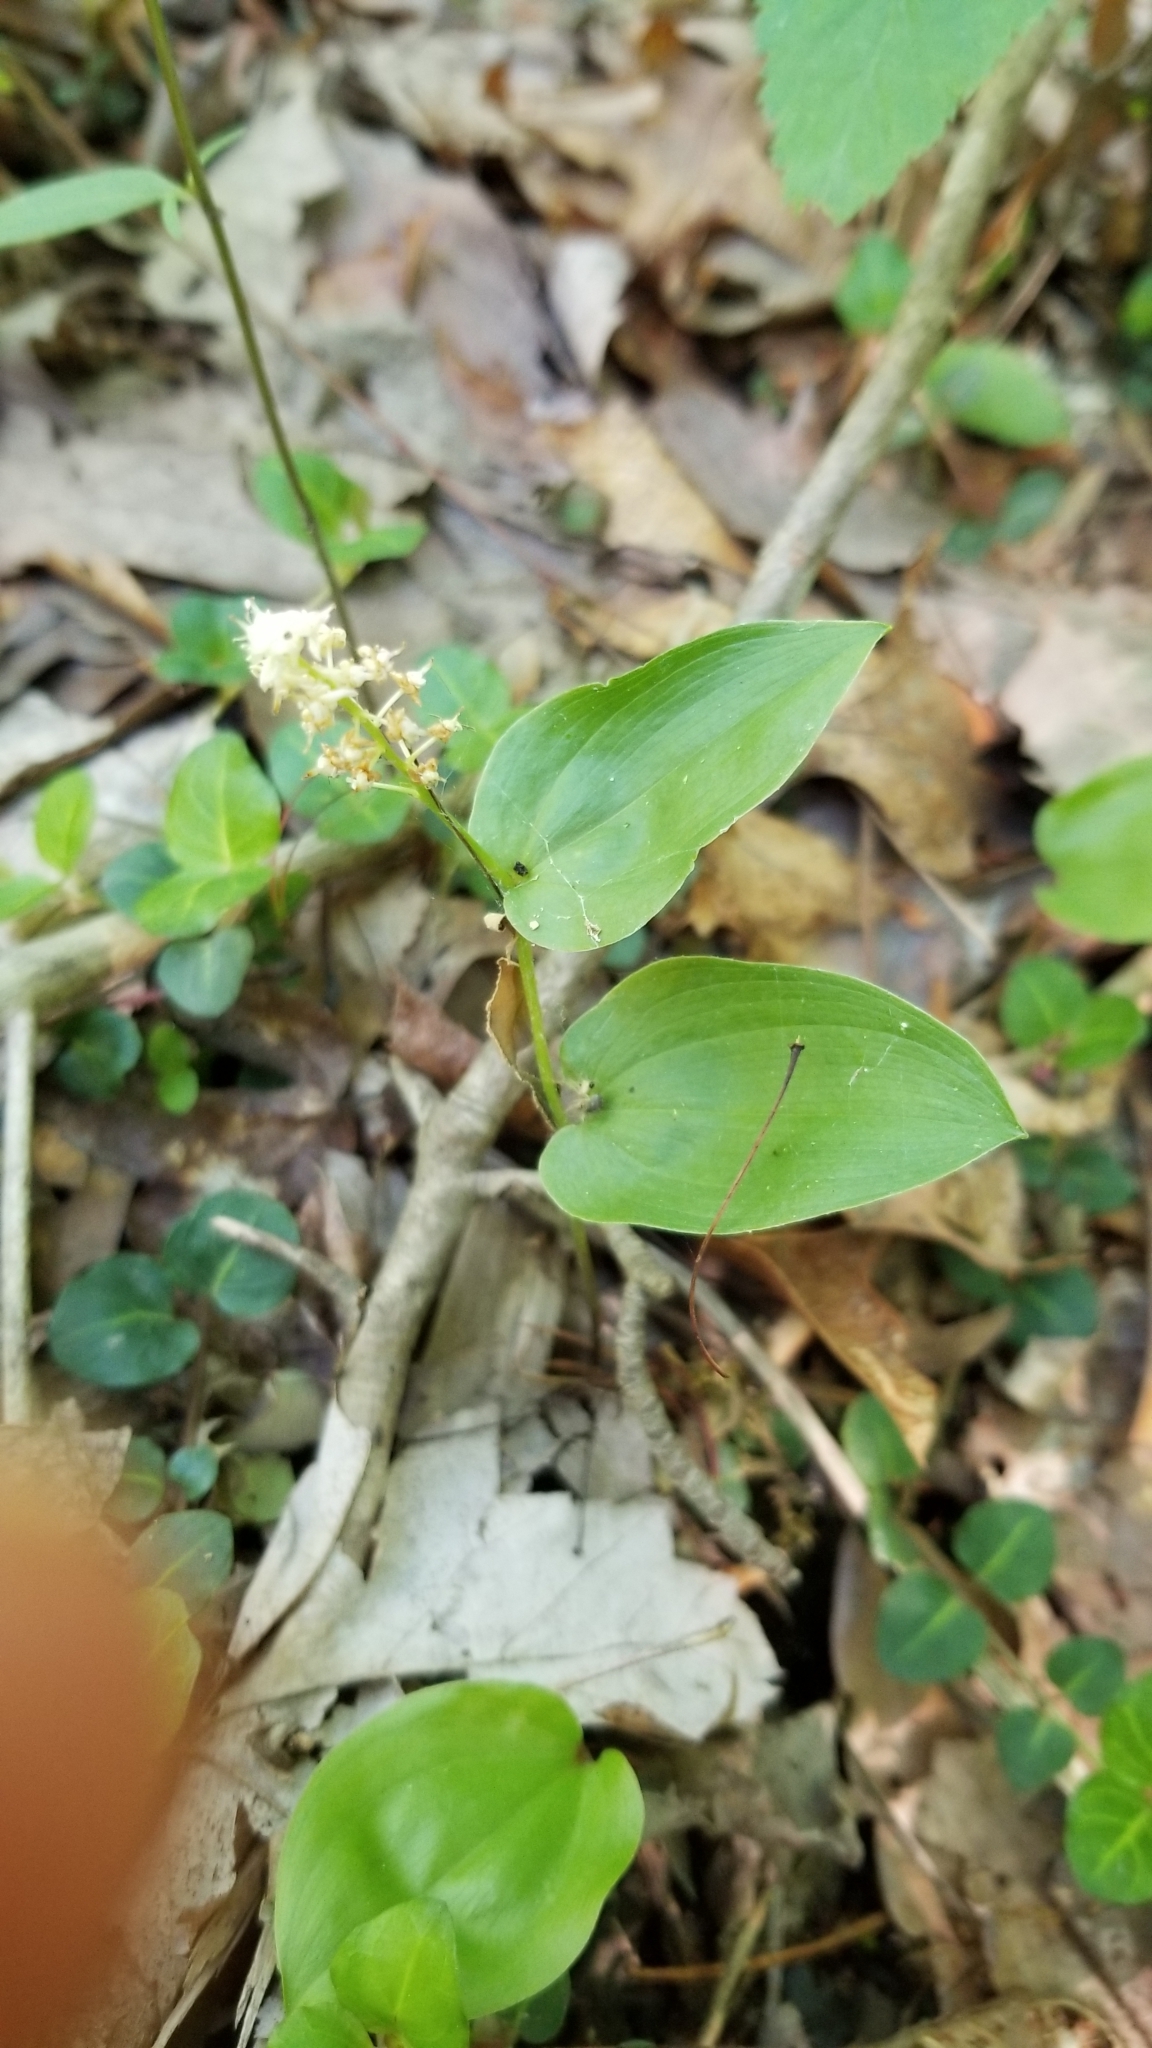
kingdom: Plantae
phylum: Tracheophyta
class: Liliopsida
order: Asparagales
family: Asparagaceae
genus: Maianthemum
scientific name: Maianthemum canadense
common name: False lily-of-the-valley
